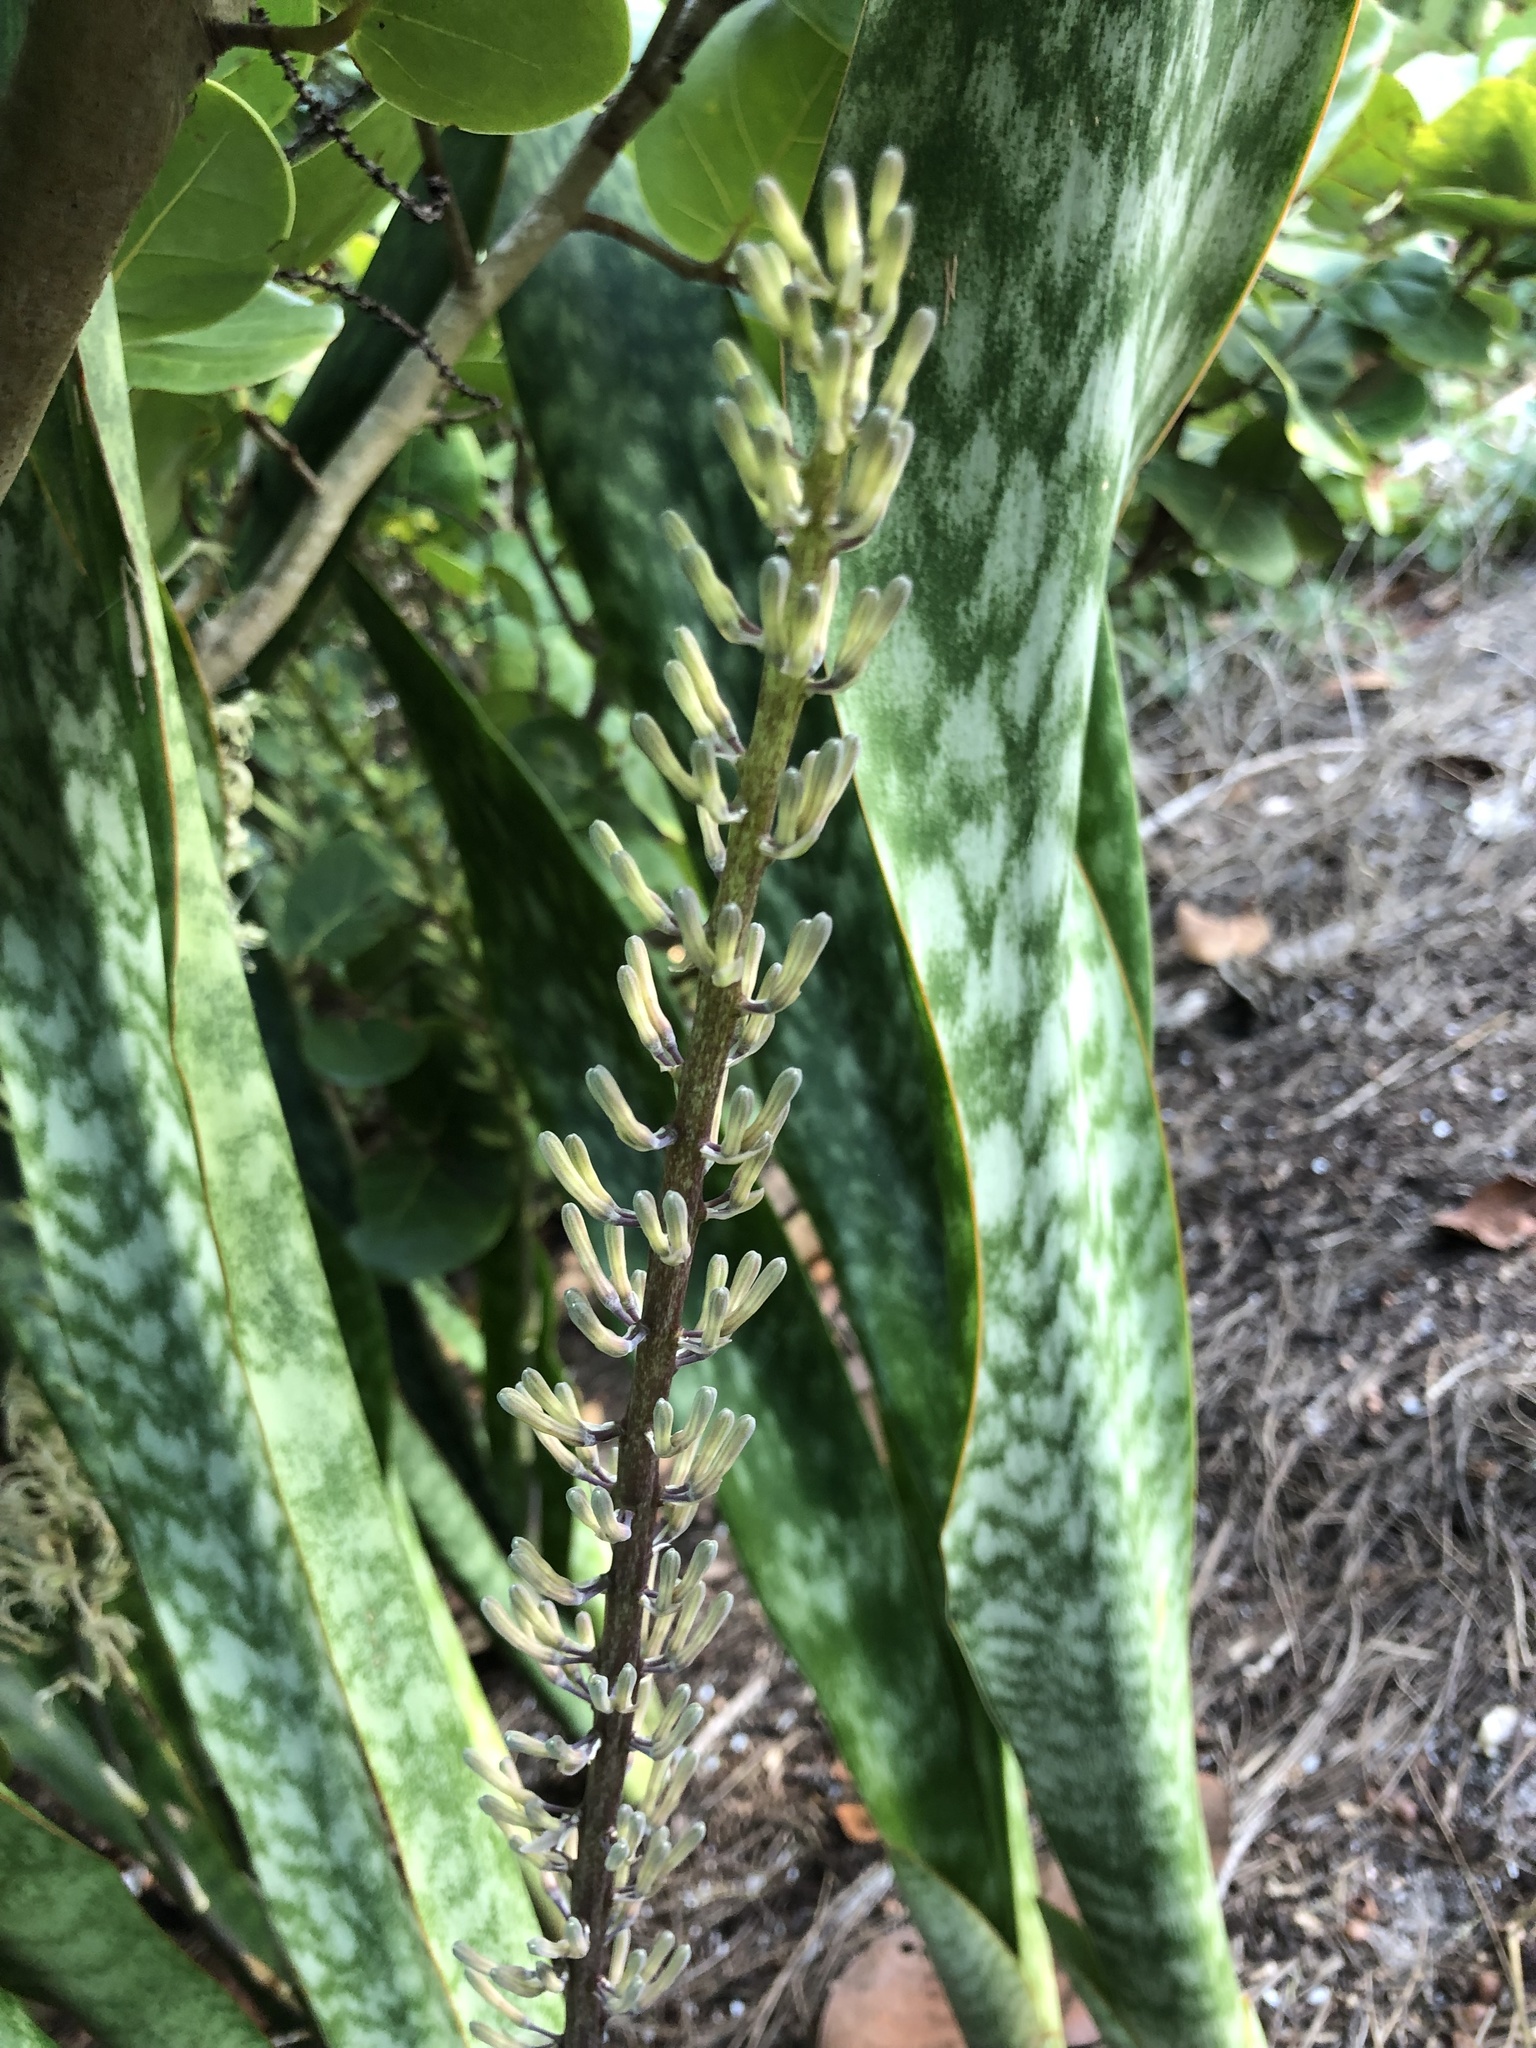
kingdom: Plantae
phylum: Tracheophyta
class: Liliopsida
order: Asparagales
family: Asparagaceae
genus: Dracaena
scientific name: Dracaena hyacinthoides
